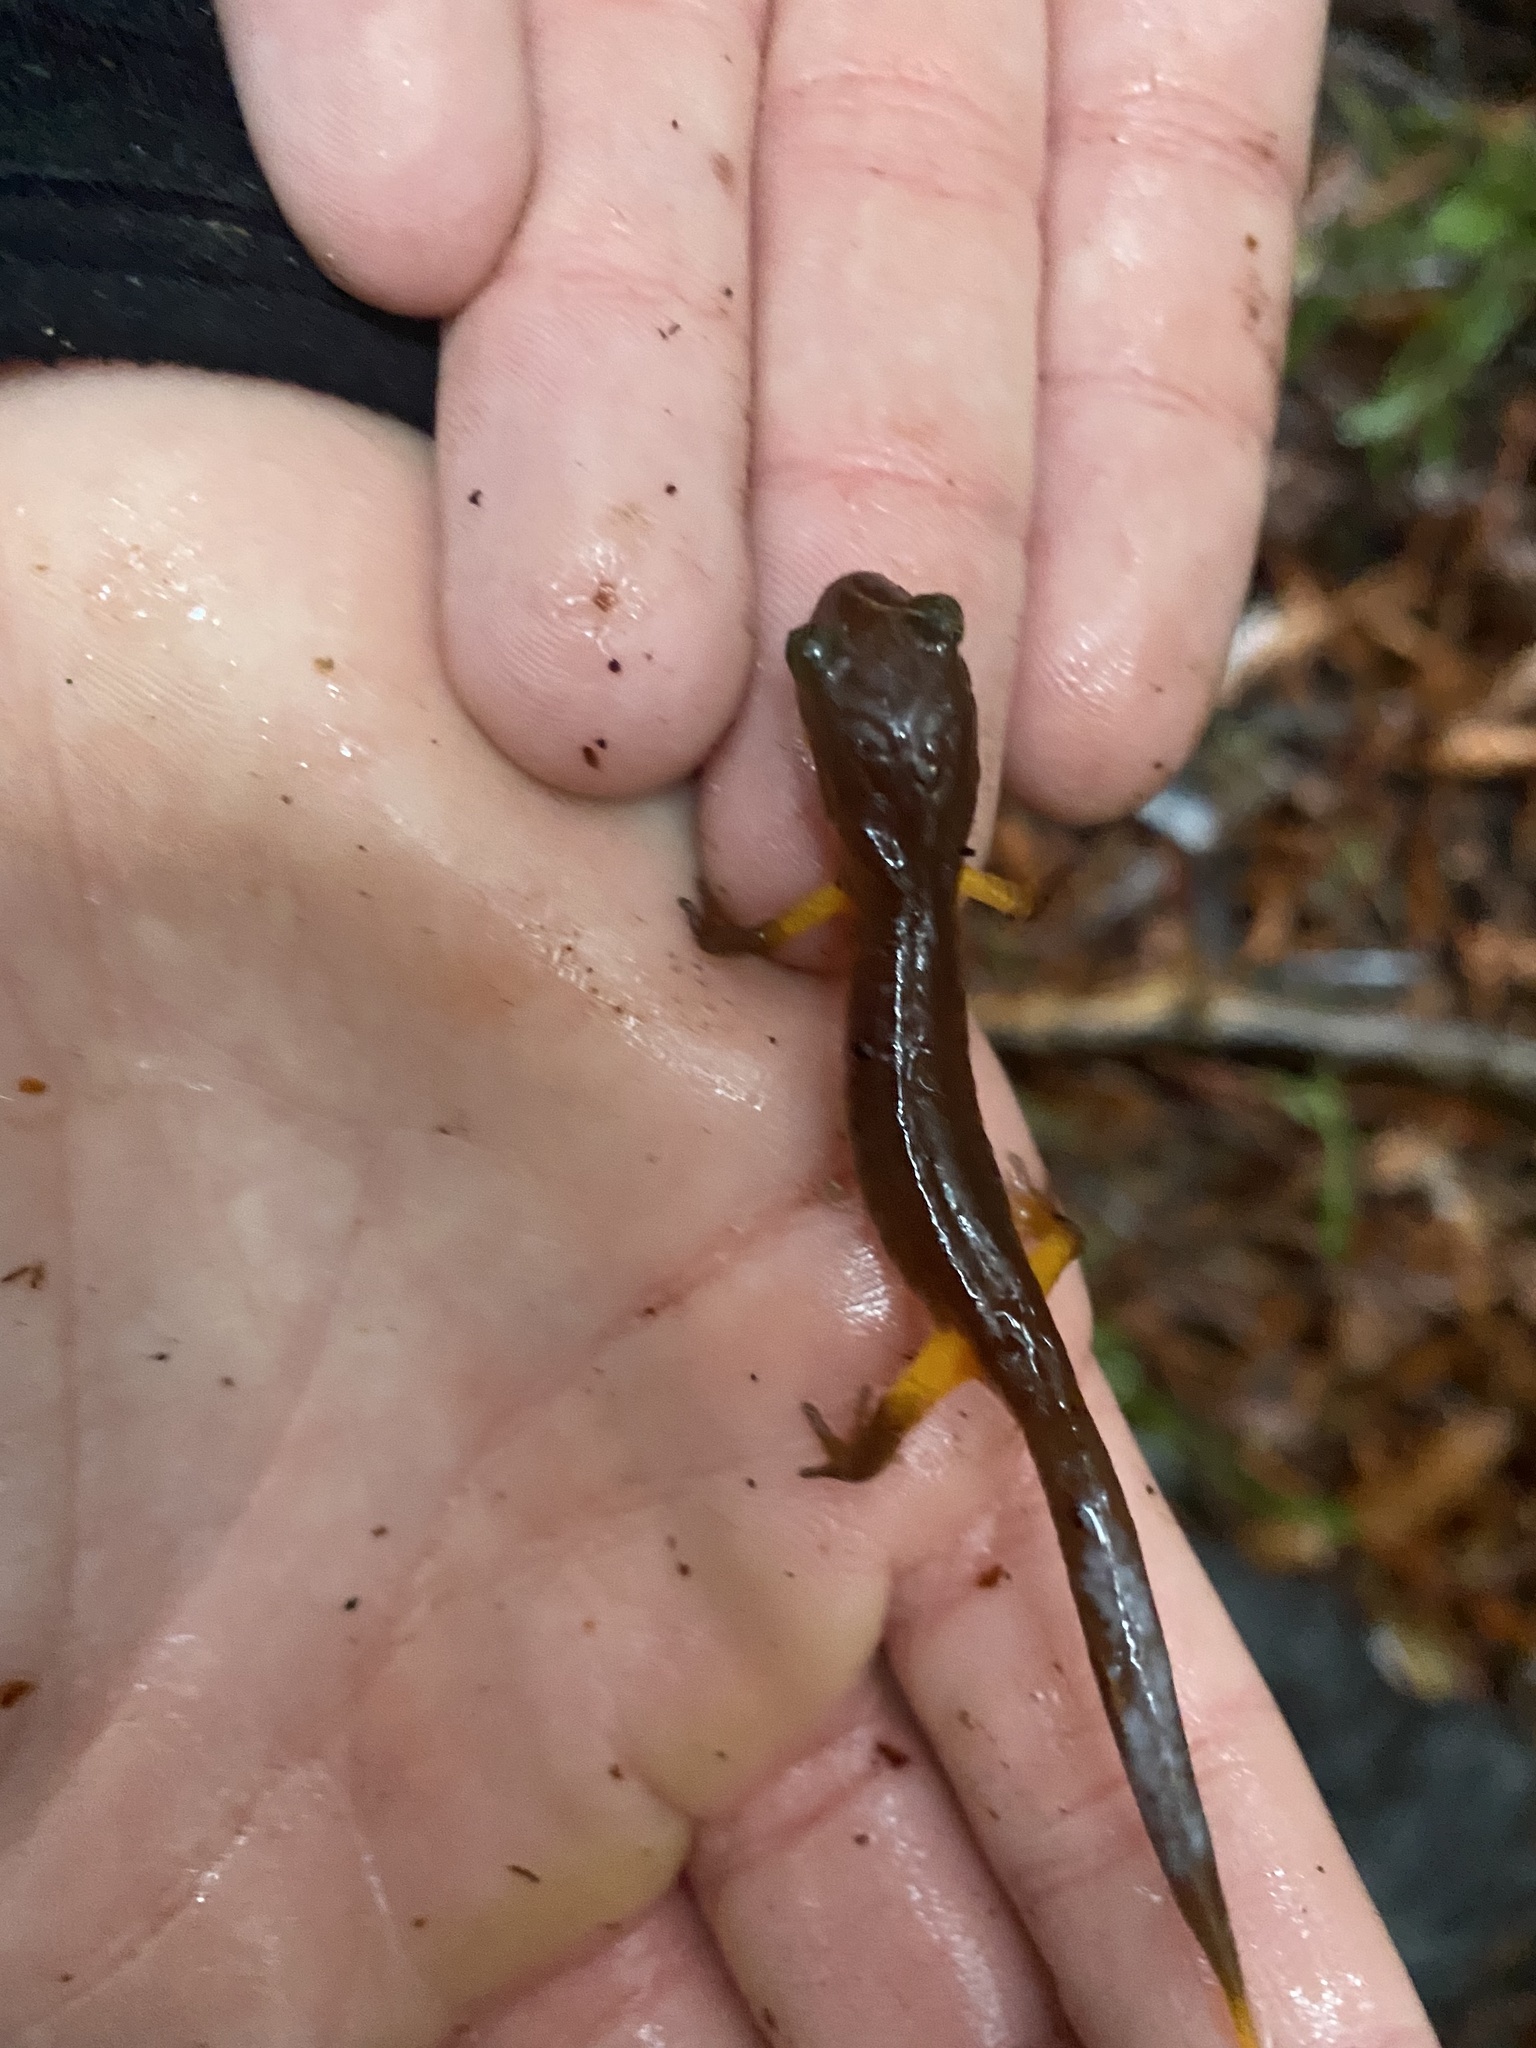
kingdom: Animalia
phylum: Chordata
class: Amphibia
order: Caudata
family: Plethodontidae
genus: Ensatina
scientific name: Ensatina eschscholtzii
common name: Ensatina
